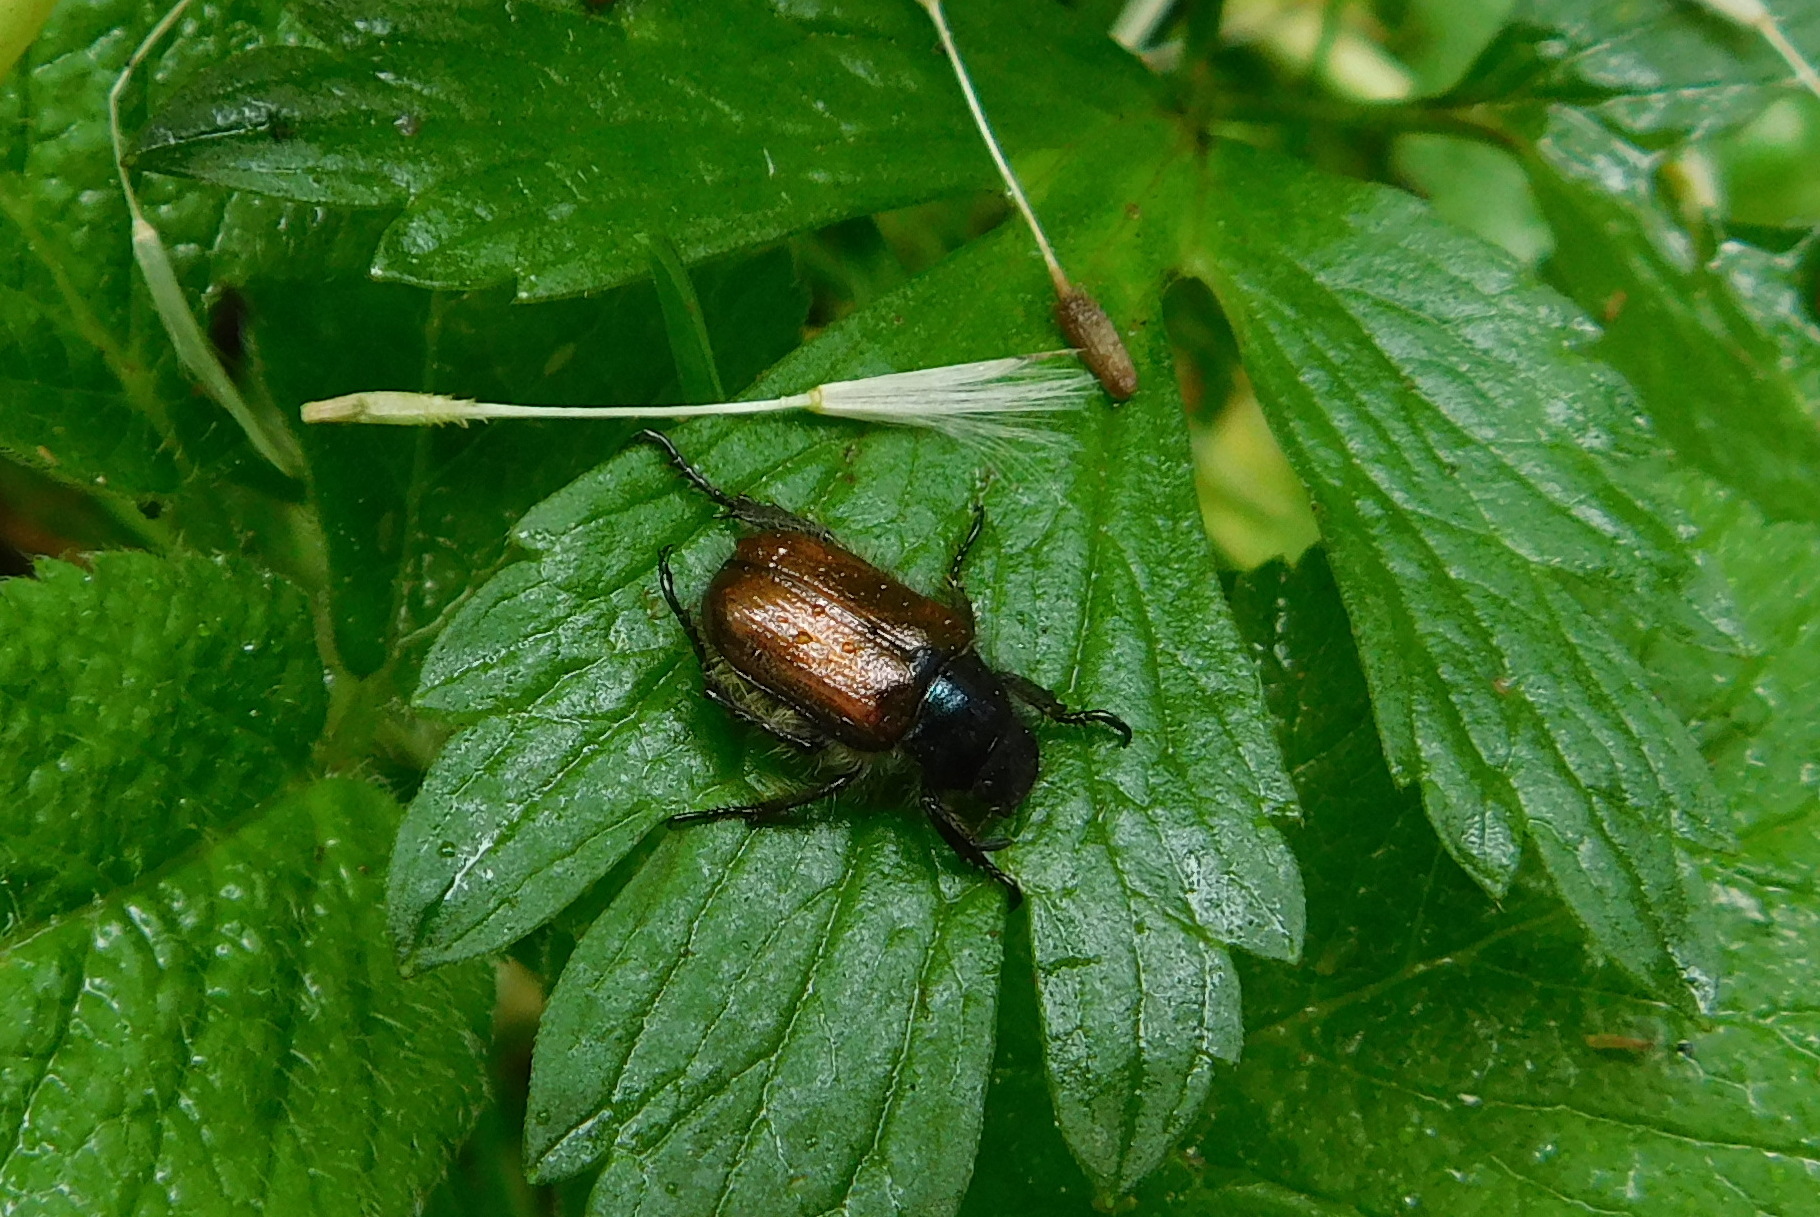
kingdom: Animalia
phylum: Arthropoda
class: Insecta
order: Coleoptera
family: Scarabaeidae
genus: Phyllopertha
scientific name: Phyllopertha horticola
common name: Garden chafer
